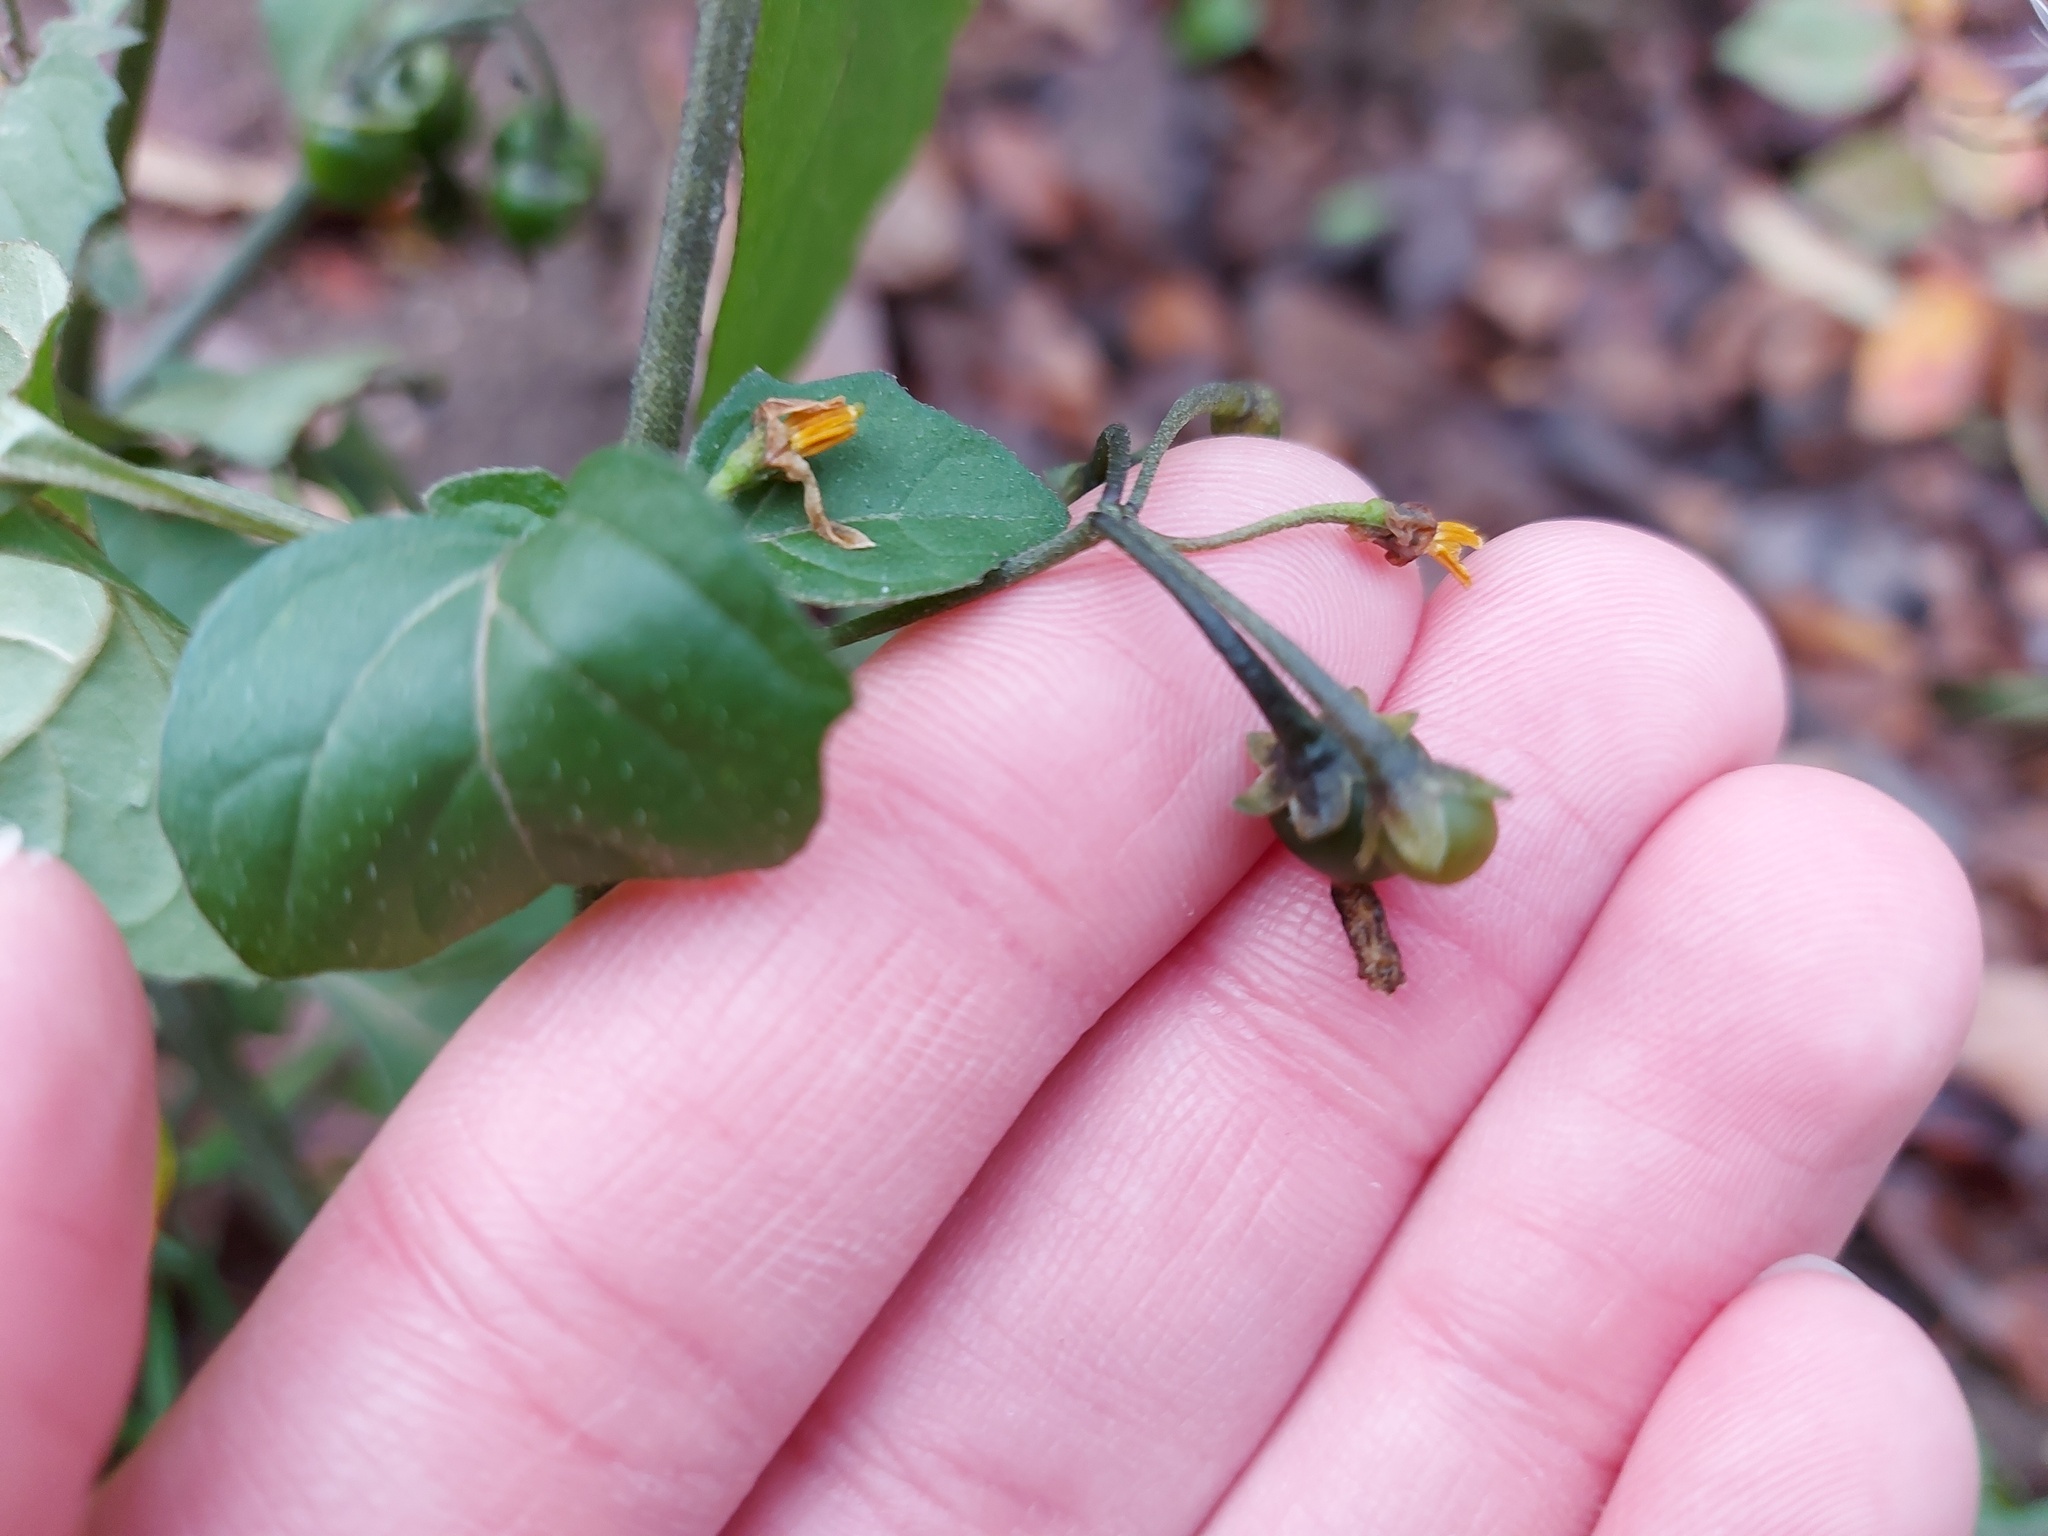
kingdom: Plantae
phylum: Tracheophyta
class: Magnoliopsida
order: Solanales
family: Solanaceae
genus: Solanum
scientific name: Solanum nigrum
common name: Black nightshade
